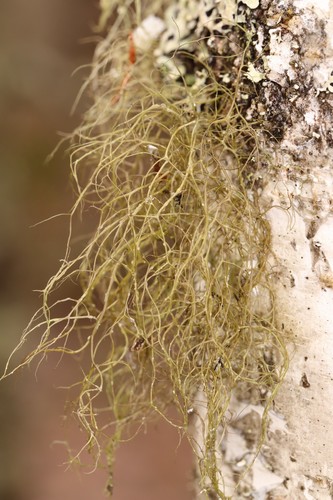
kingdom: Fungi
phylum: Ascomycota
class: Lecanoromycetes
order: Lecanorales
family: Parmeliaceae
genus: Bryoria
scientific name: Bryoria
